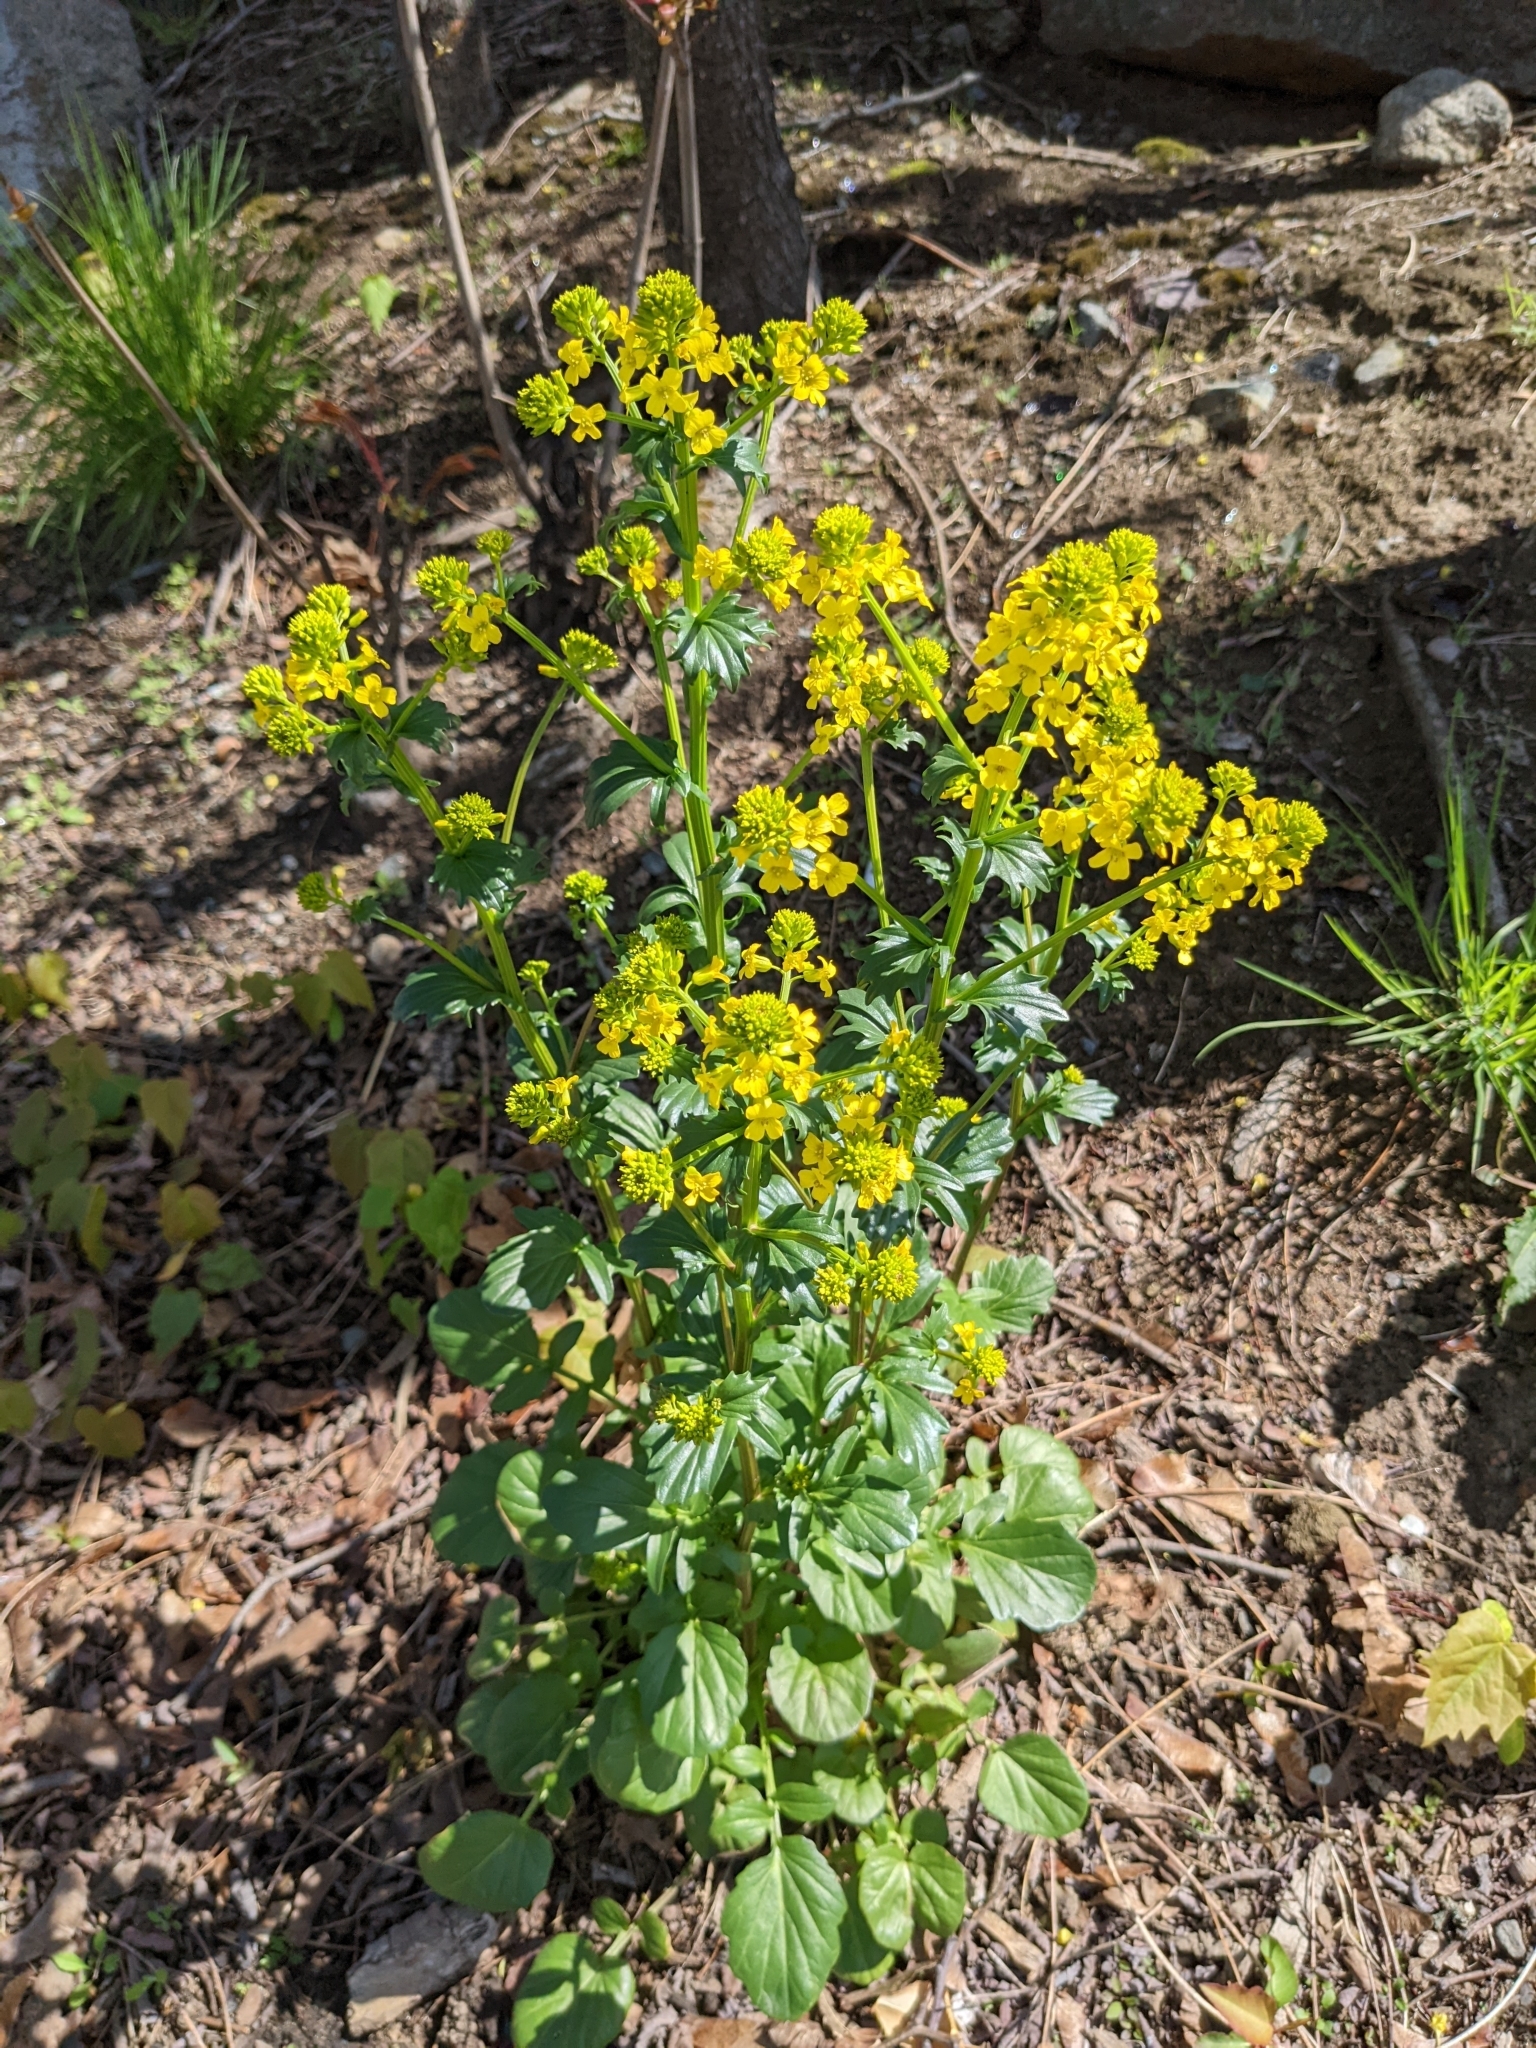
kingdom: Plantae
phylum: Tracheophyta
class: Magnoliopsida
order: Brassicales
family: Brassicaceae
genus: Barbarea
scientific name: Barbarea vulgaris
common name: Cressy-greens
